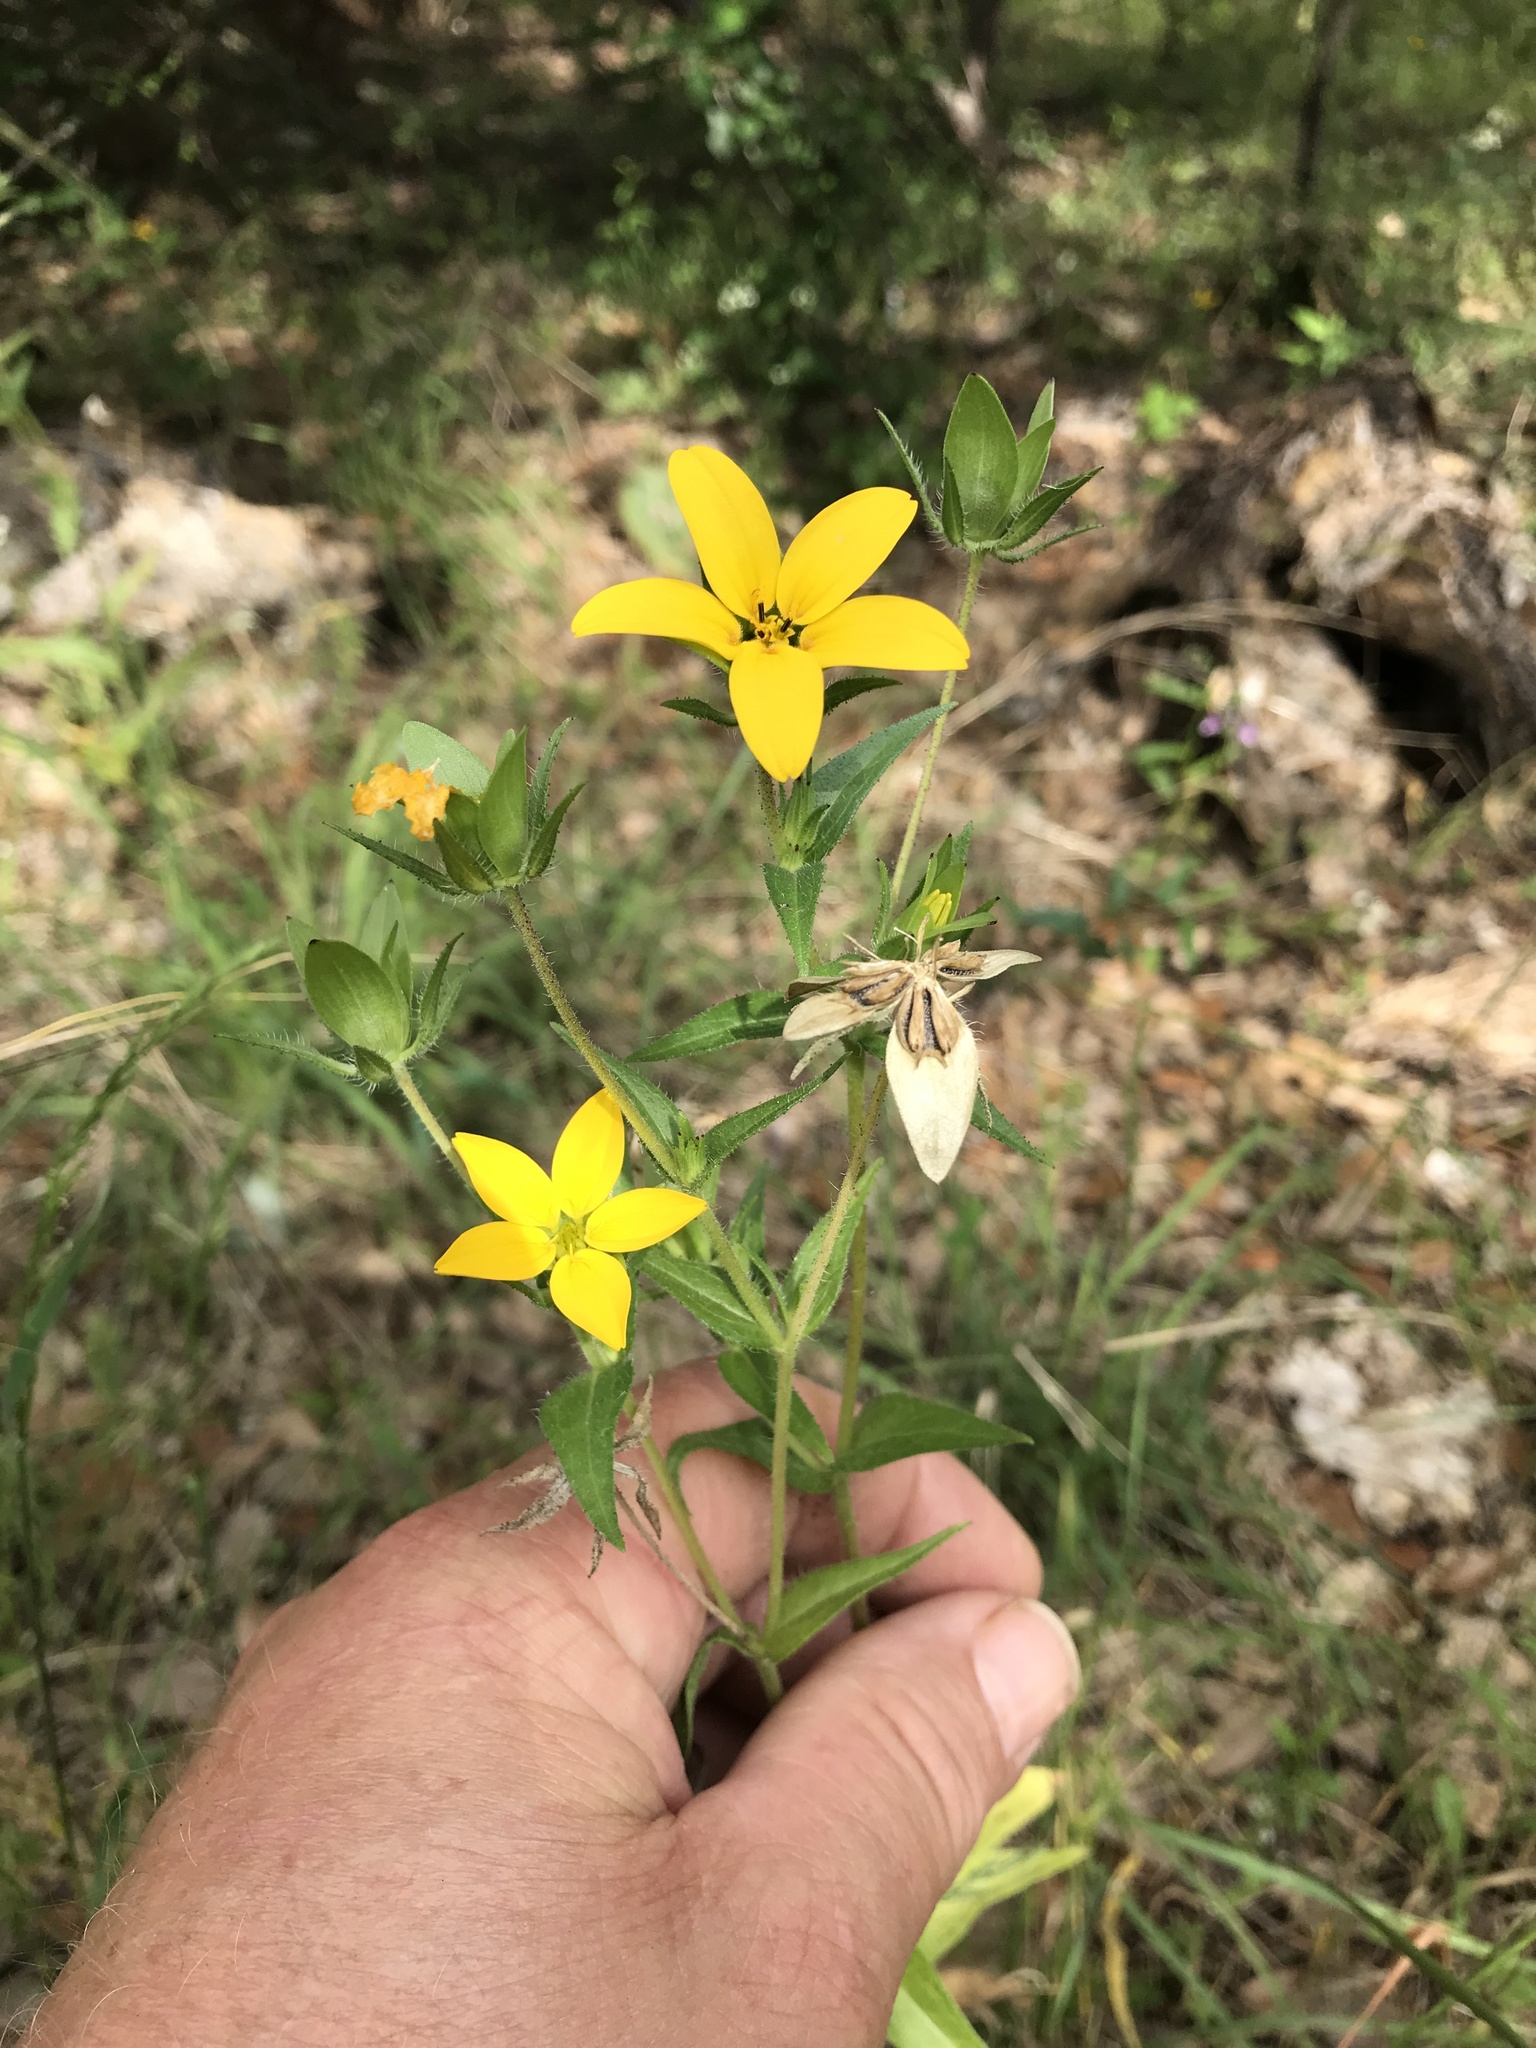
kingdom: Plantae
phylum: Tracheophyta
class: Magnoliopsida
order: Asterales
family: Asteraceae
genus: Lindheimera
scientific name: Lindheimera texana
